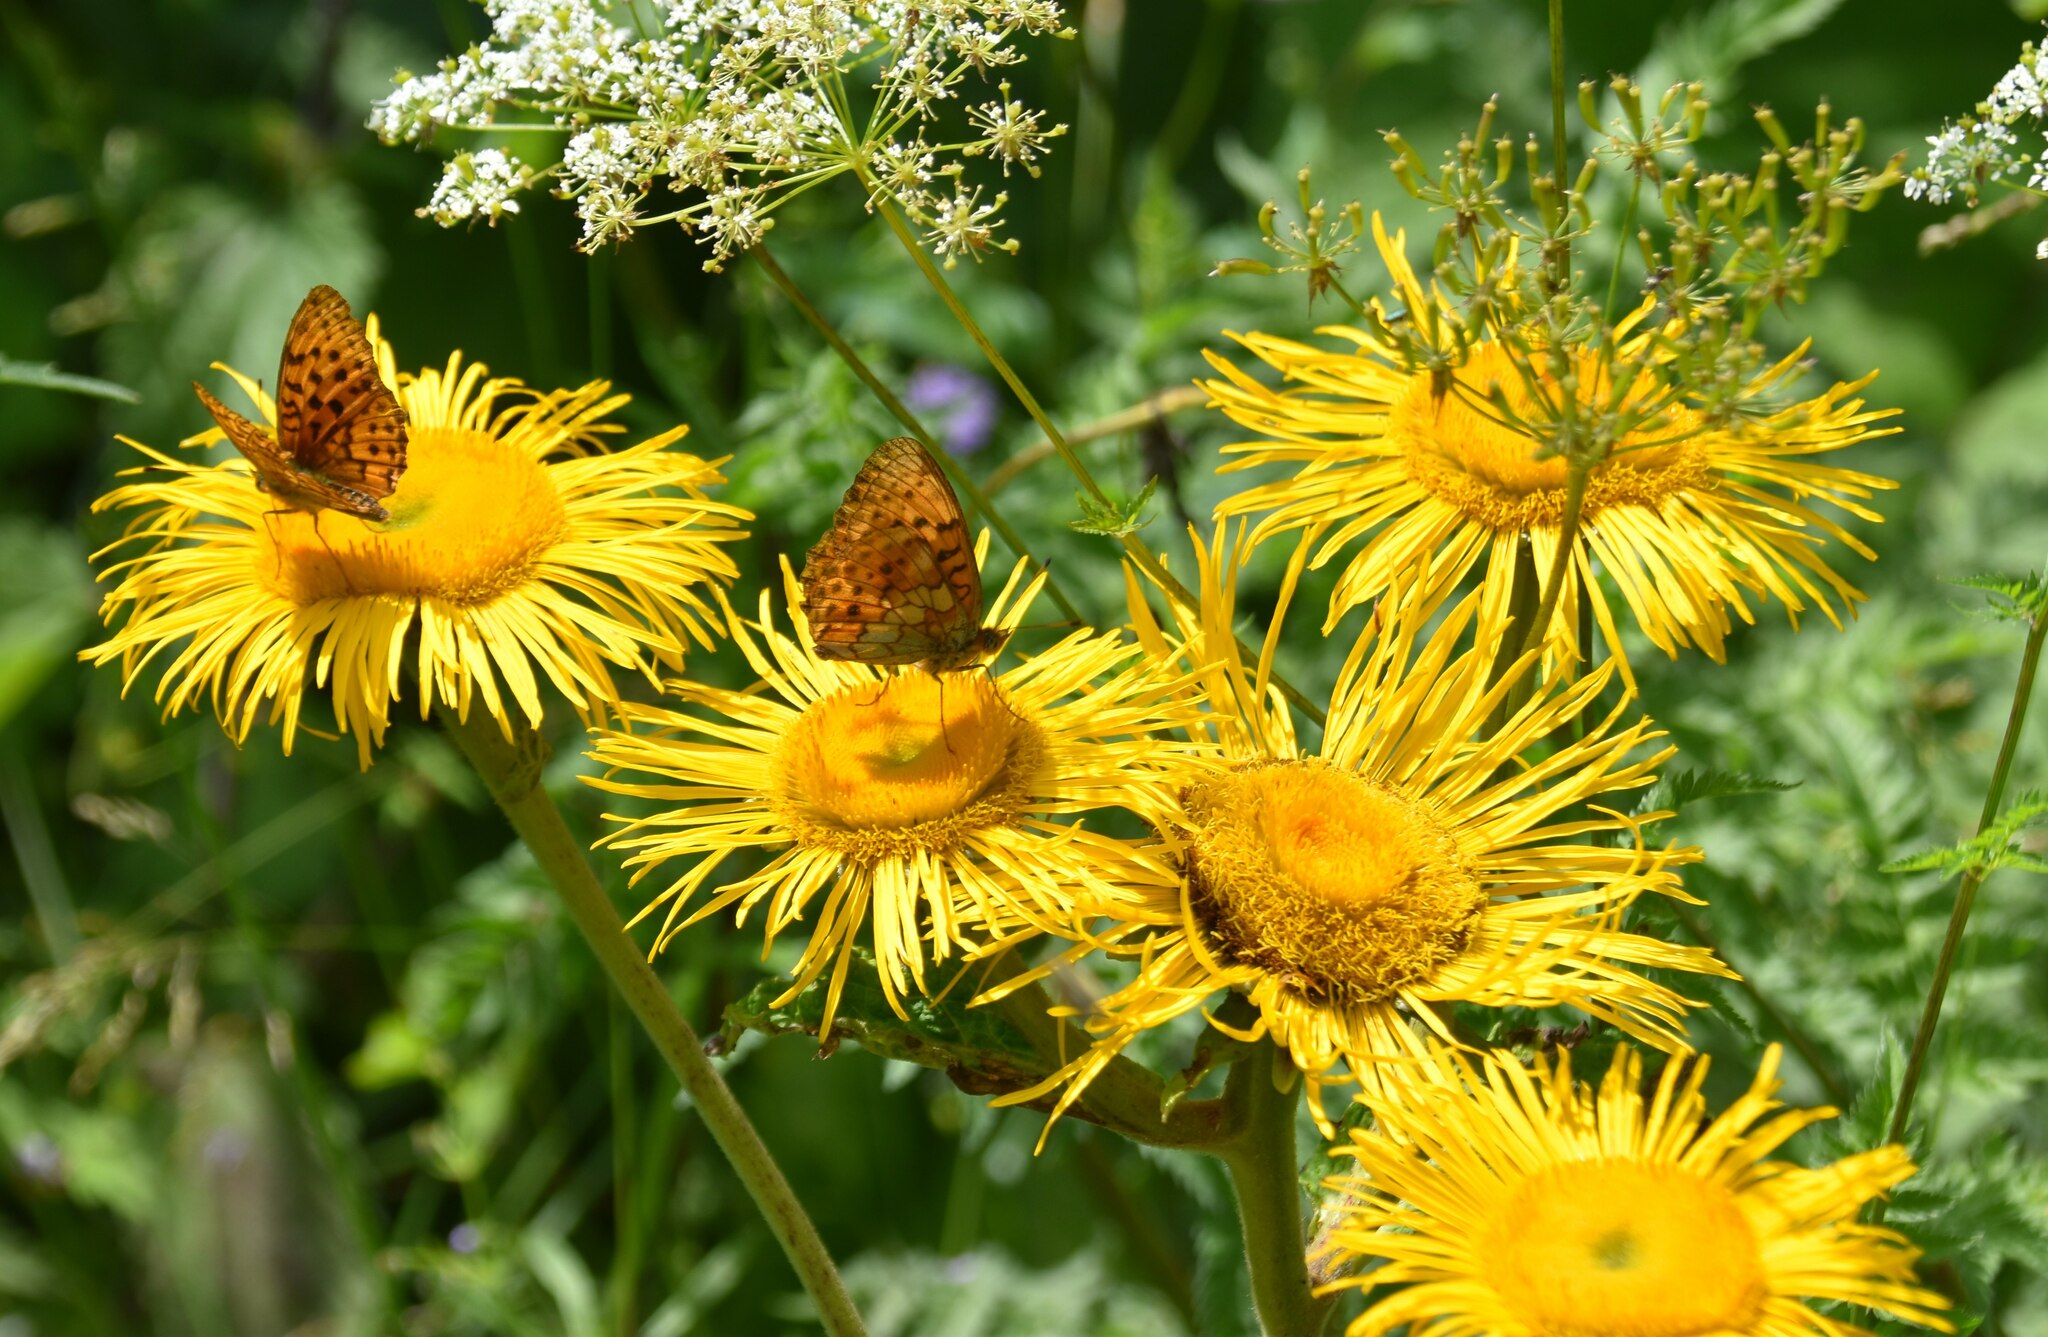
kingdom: Plantae
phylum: Tracheophyta
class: Magnoliopsida
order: Asterales
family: Asteraceae
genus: Telekia
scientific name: Telekia speciosa
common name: Yellow oxeye
